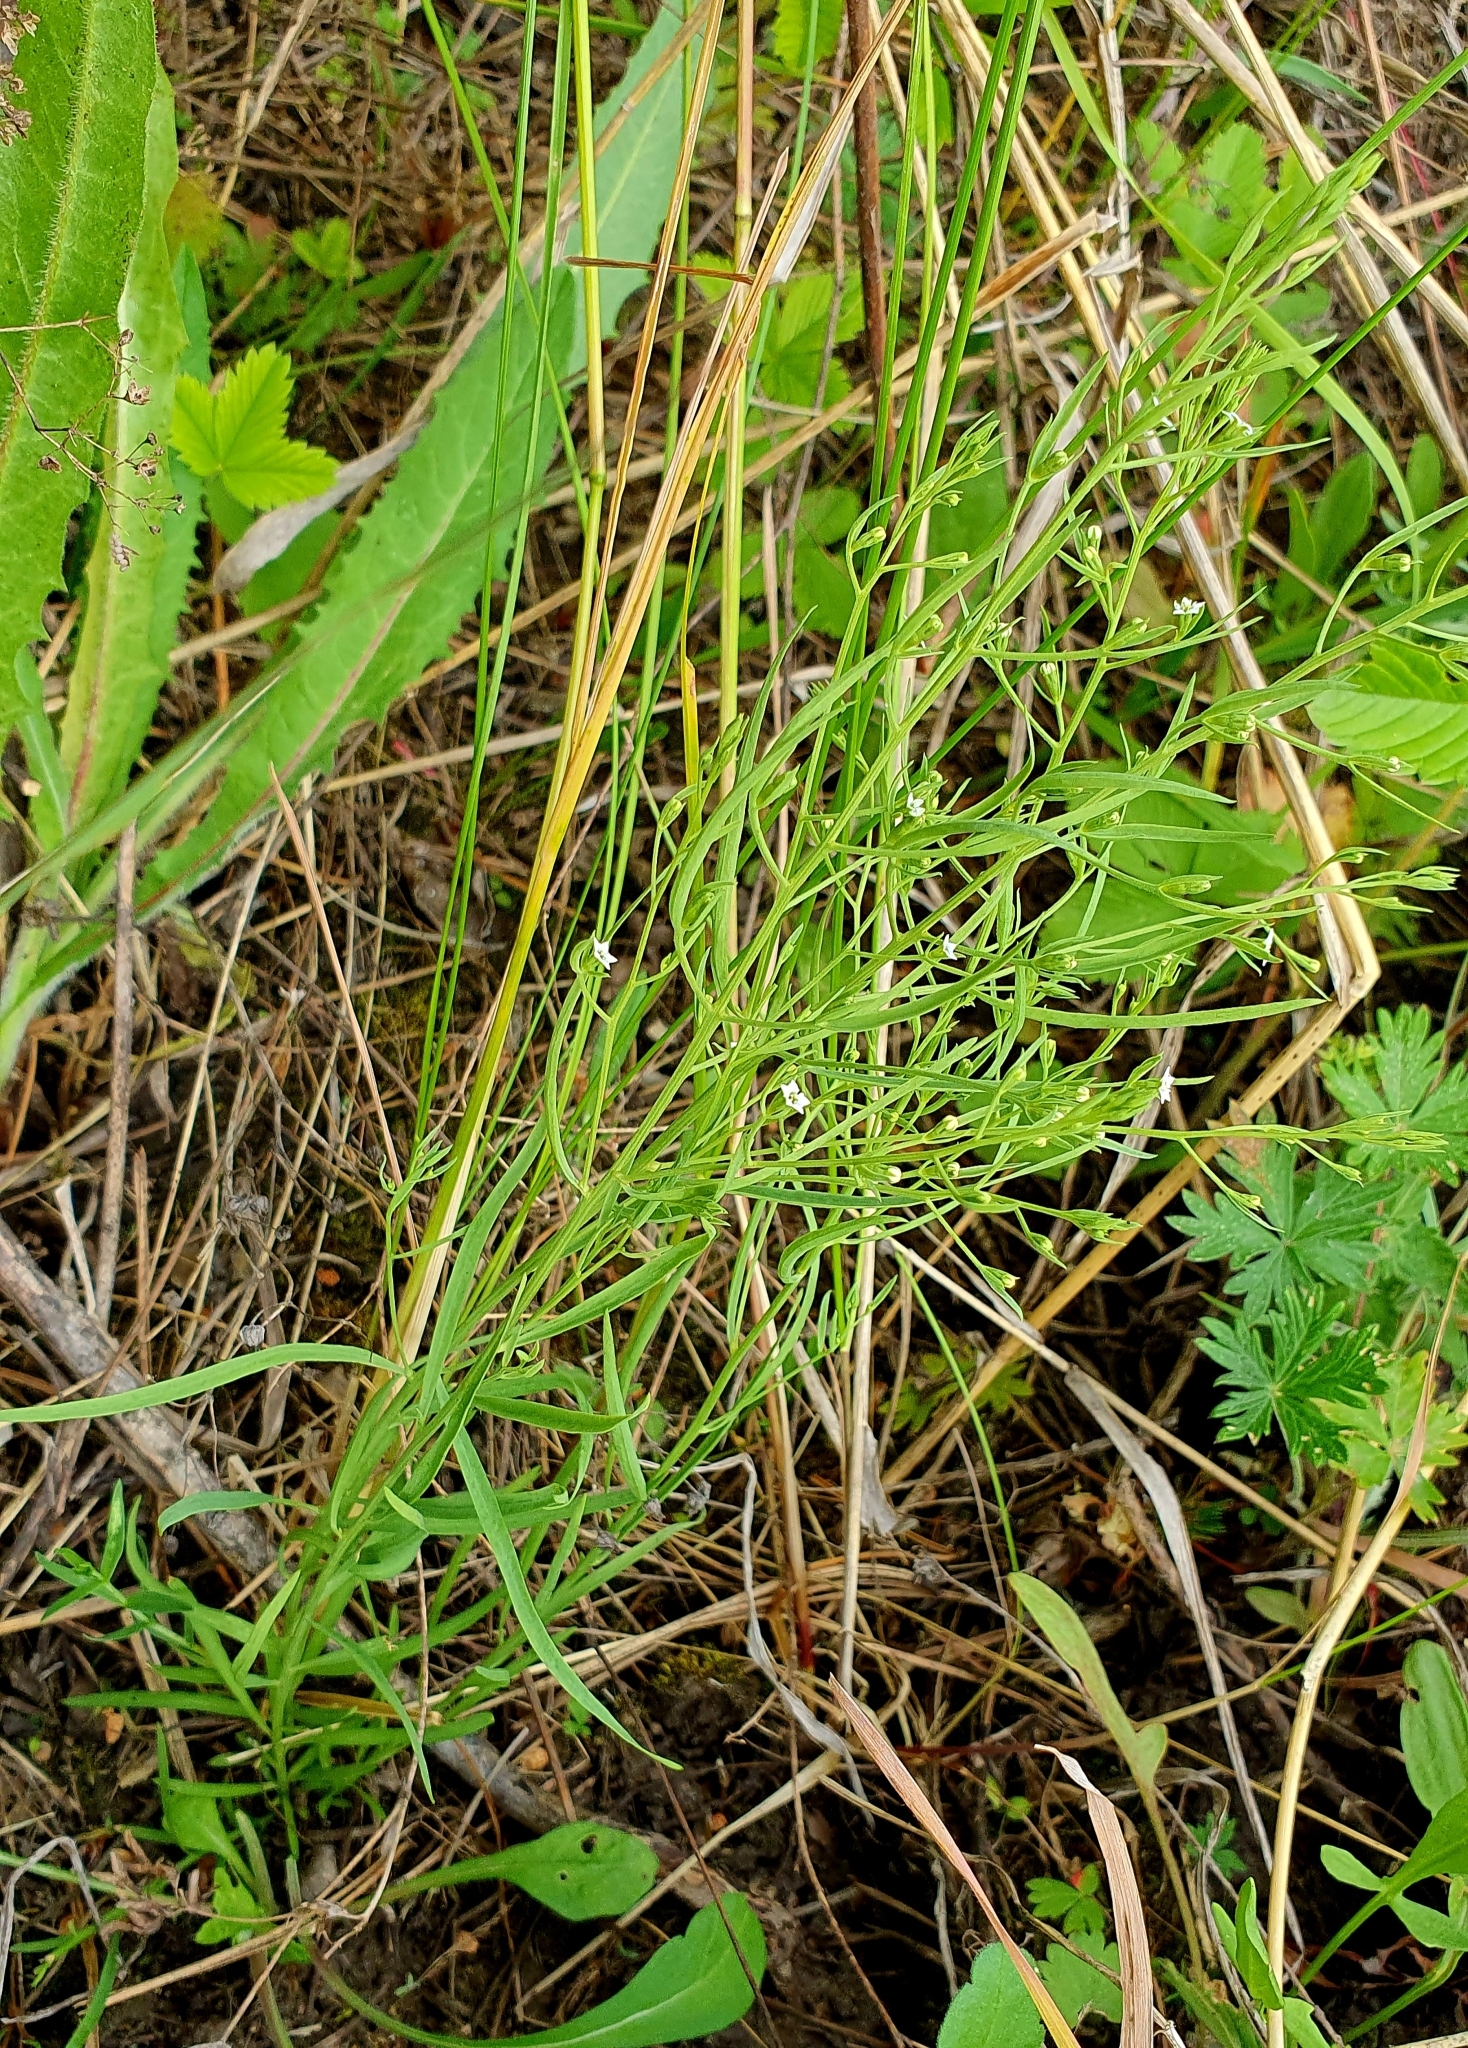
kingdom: Plantae
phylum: Tracheophyta
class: Magnoliopsida
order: Santalales
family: Thesiaceae
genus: Thesium
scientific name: Thesium ramosum
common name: Field thesium
